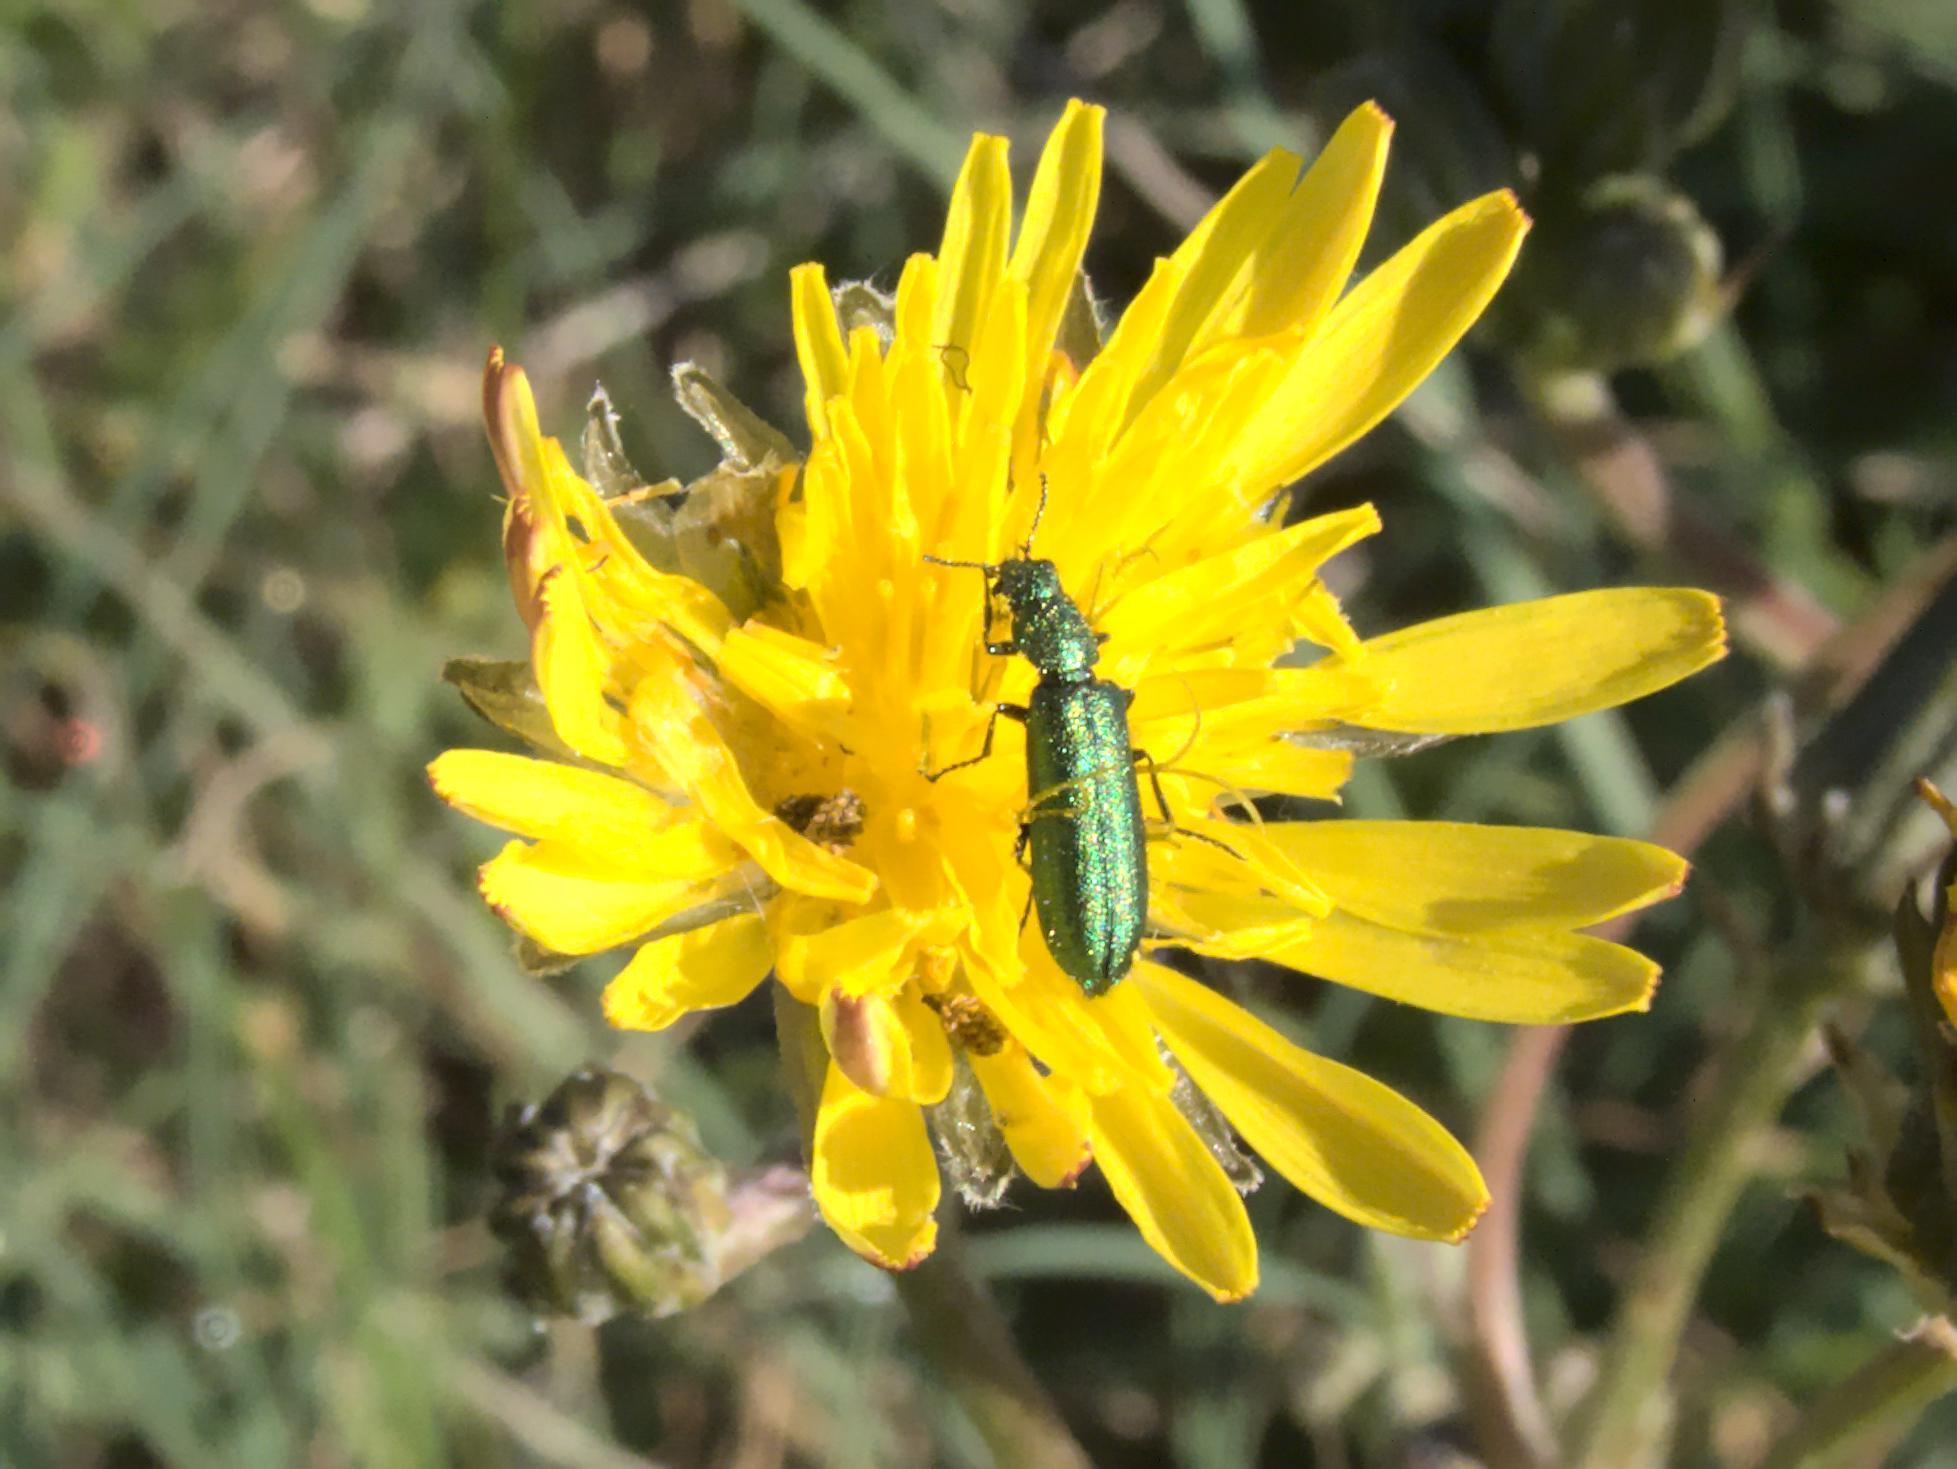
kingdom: Animalia
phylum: Arthropoda
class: Insecta
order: Coleoptera
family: Dasytidae
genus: Psilothrix
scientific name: Psilothrix viridicoerulea
